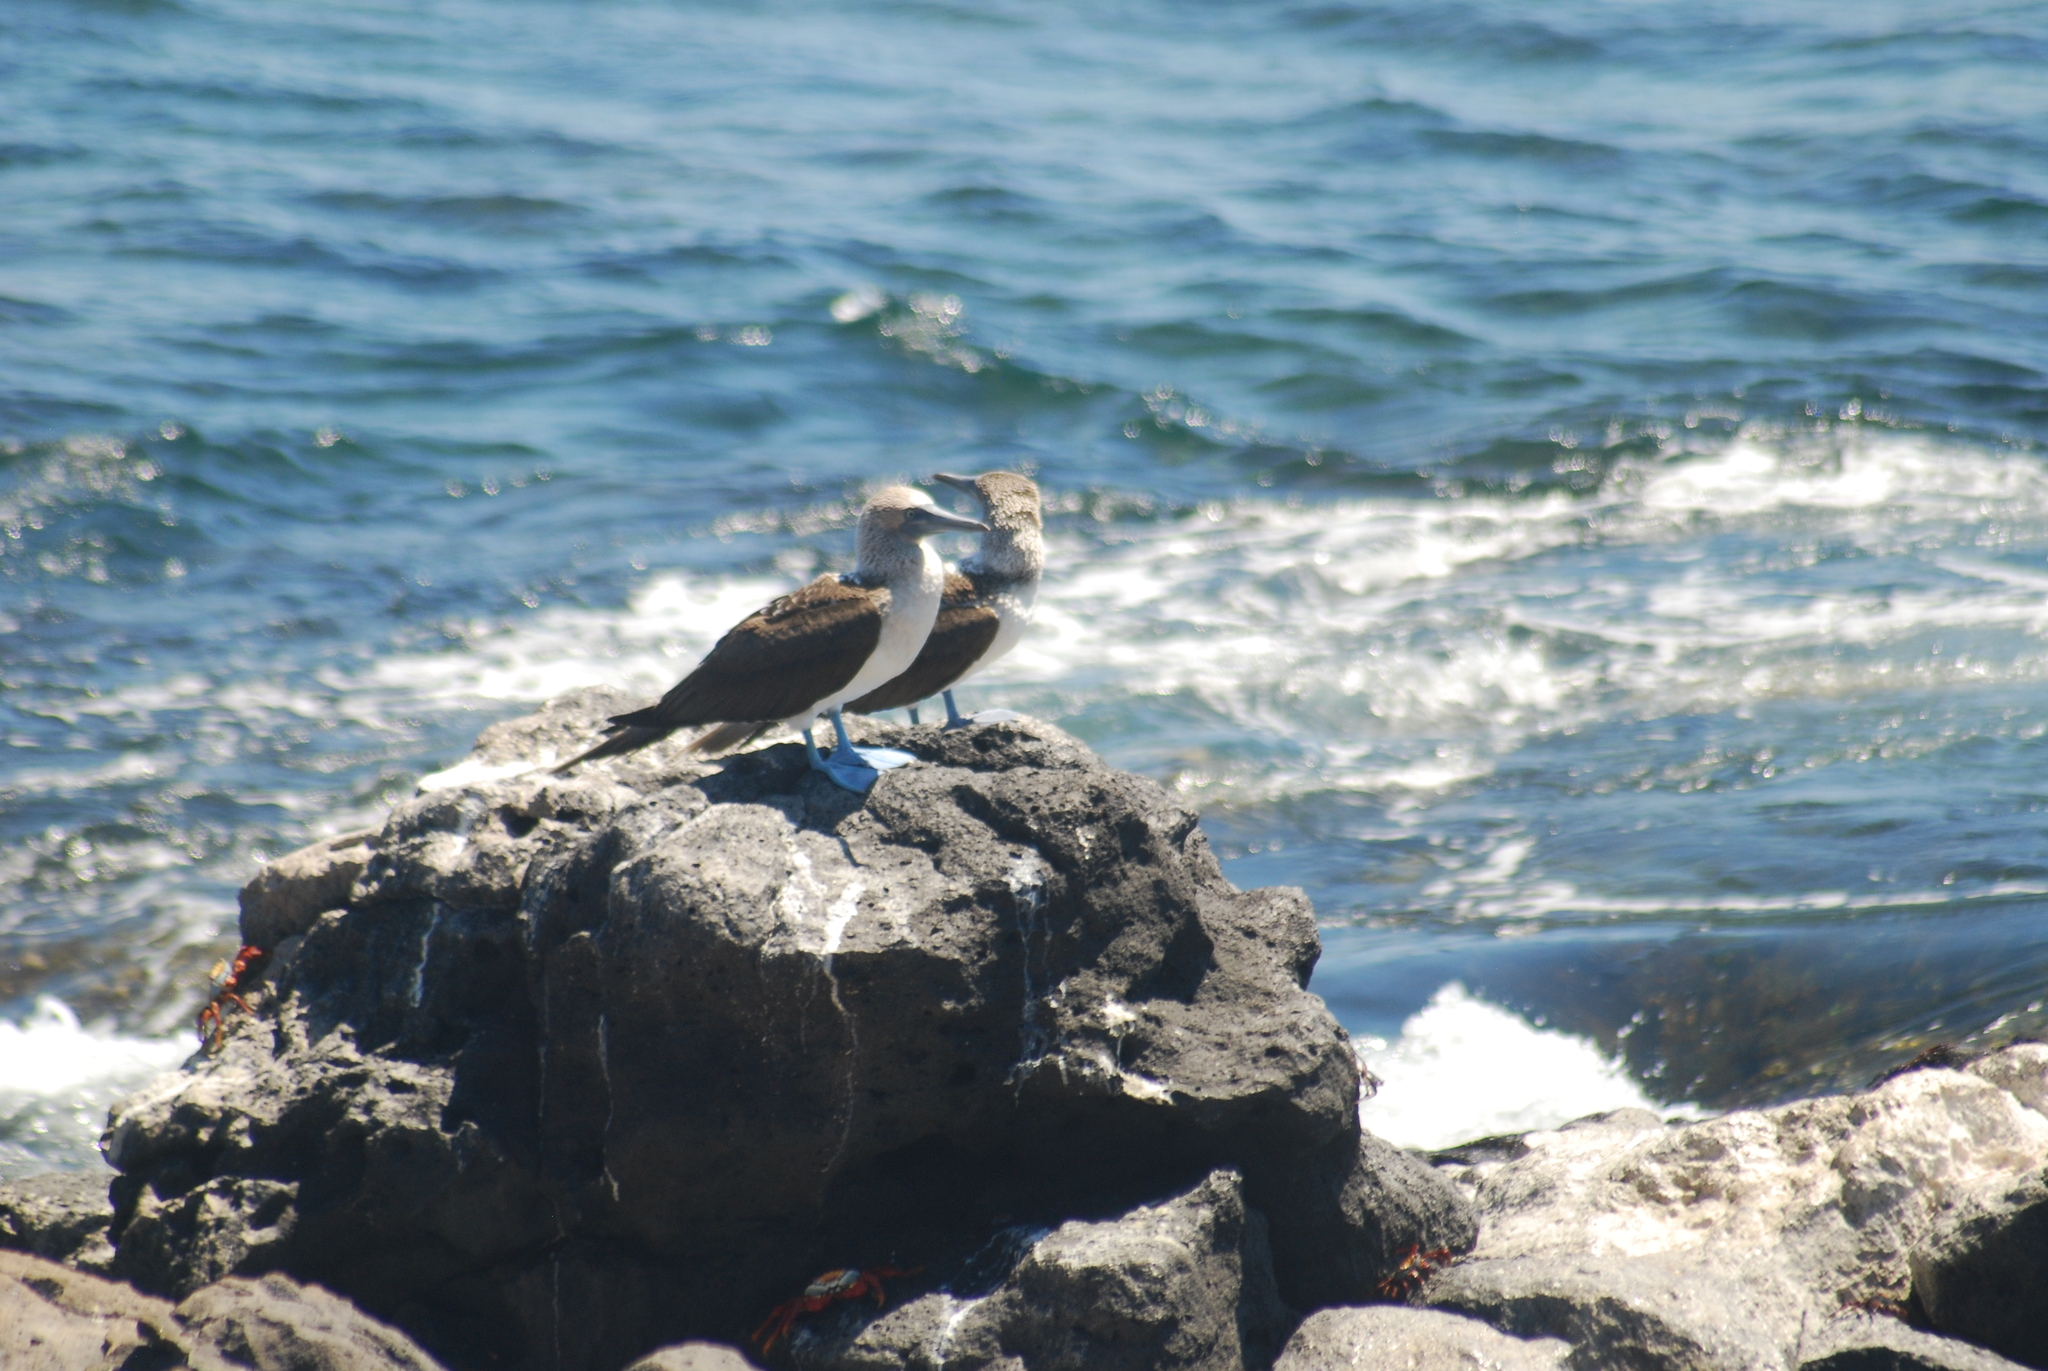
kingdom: Animalia
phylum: Chordata
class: Aves
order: Suliformes
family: Sulidae
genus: Sula
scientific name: Sula nebouxii
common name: Blue-footed booby
